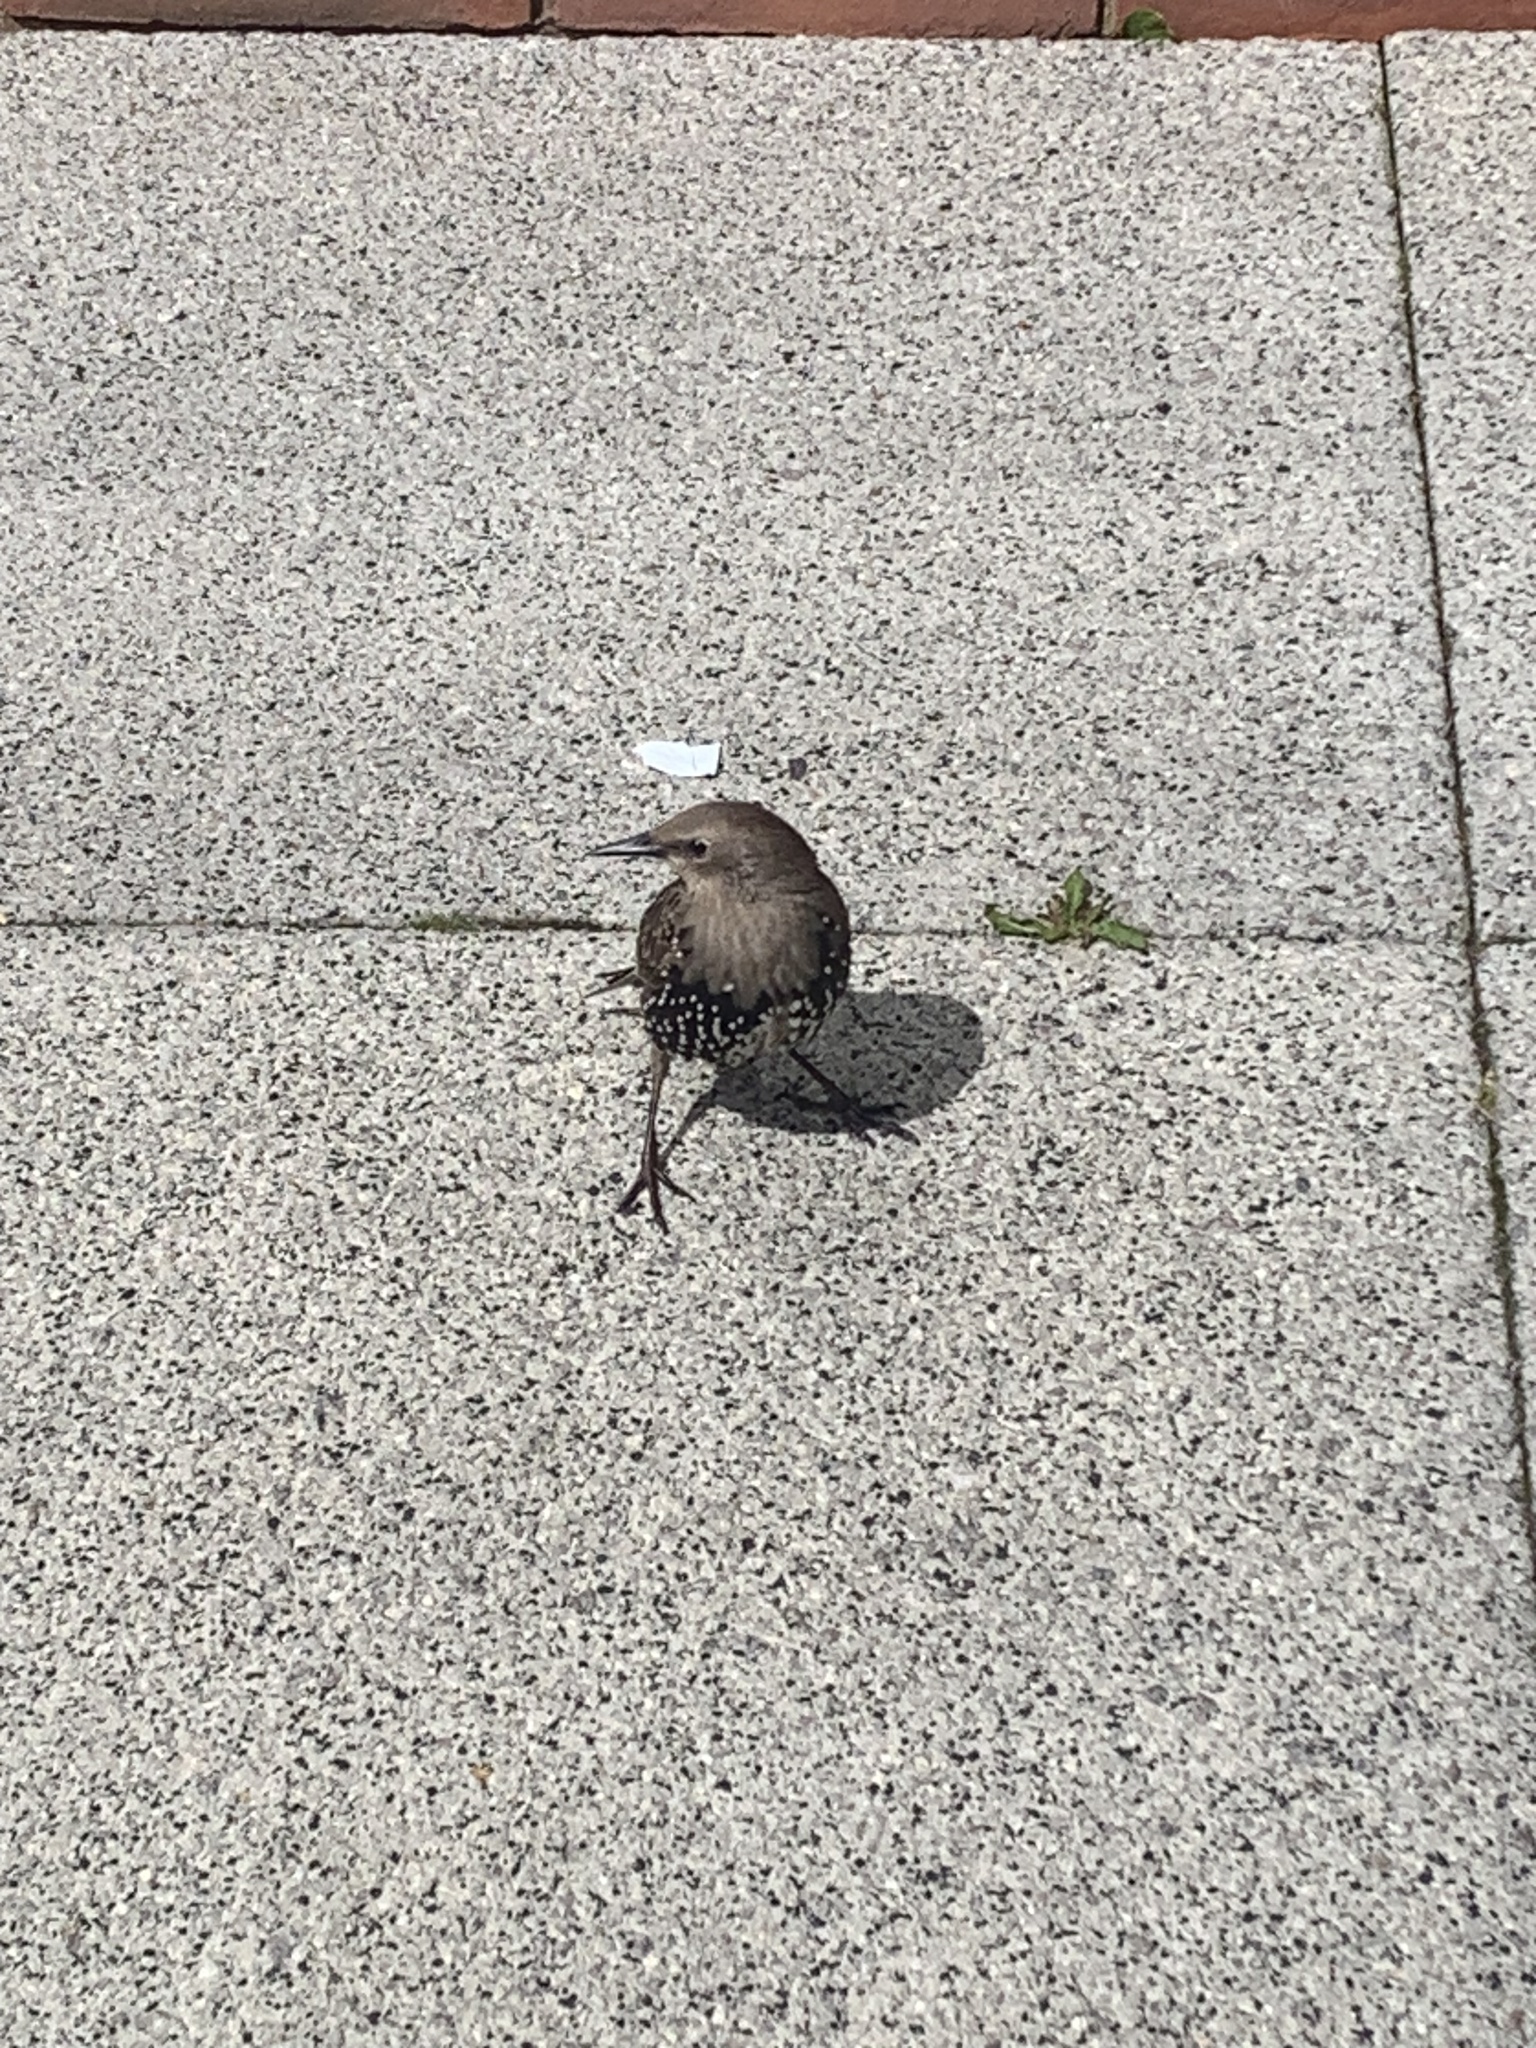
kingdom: Animalia
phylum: Chordata
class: Aves
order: Passeriformes
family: Sturnidae
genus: Sturnus
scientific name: Sturnus vulgaris
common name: Common starling
